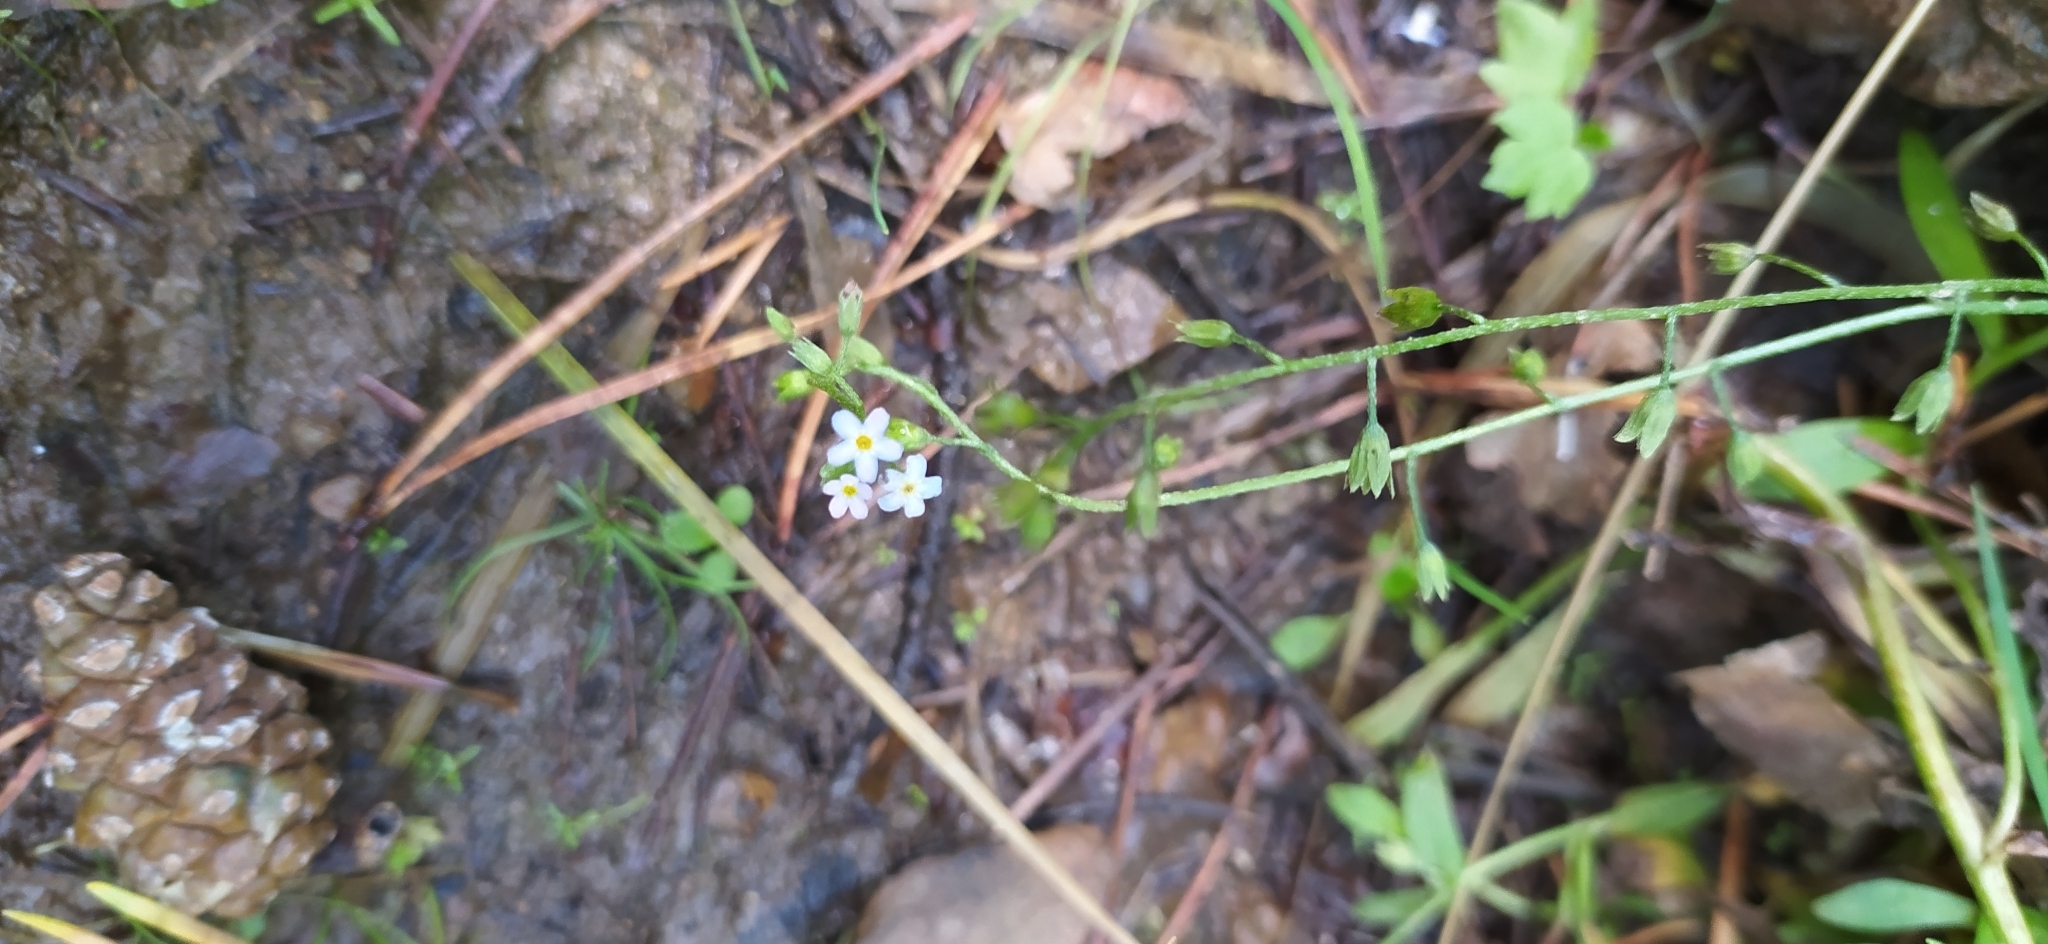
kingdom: Plantae
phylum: Tracheophyta
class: Magnoliopsida
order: Boraginales
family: Boraginaceae
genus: Myosotis
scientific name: Myosotis scorpioides
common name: Water forget-me-not
